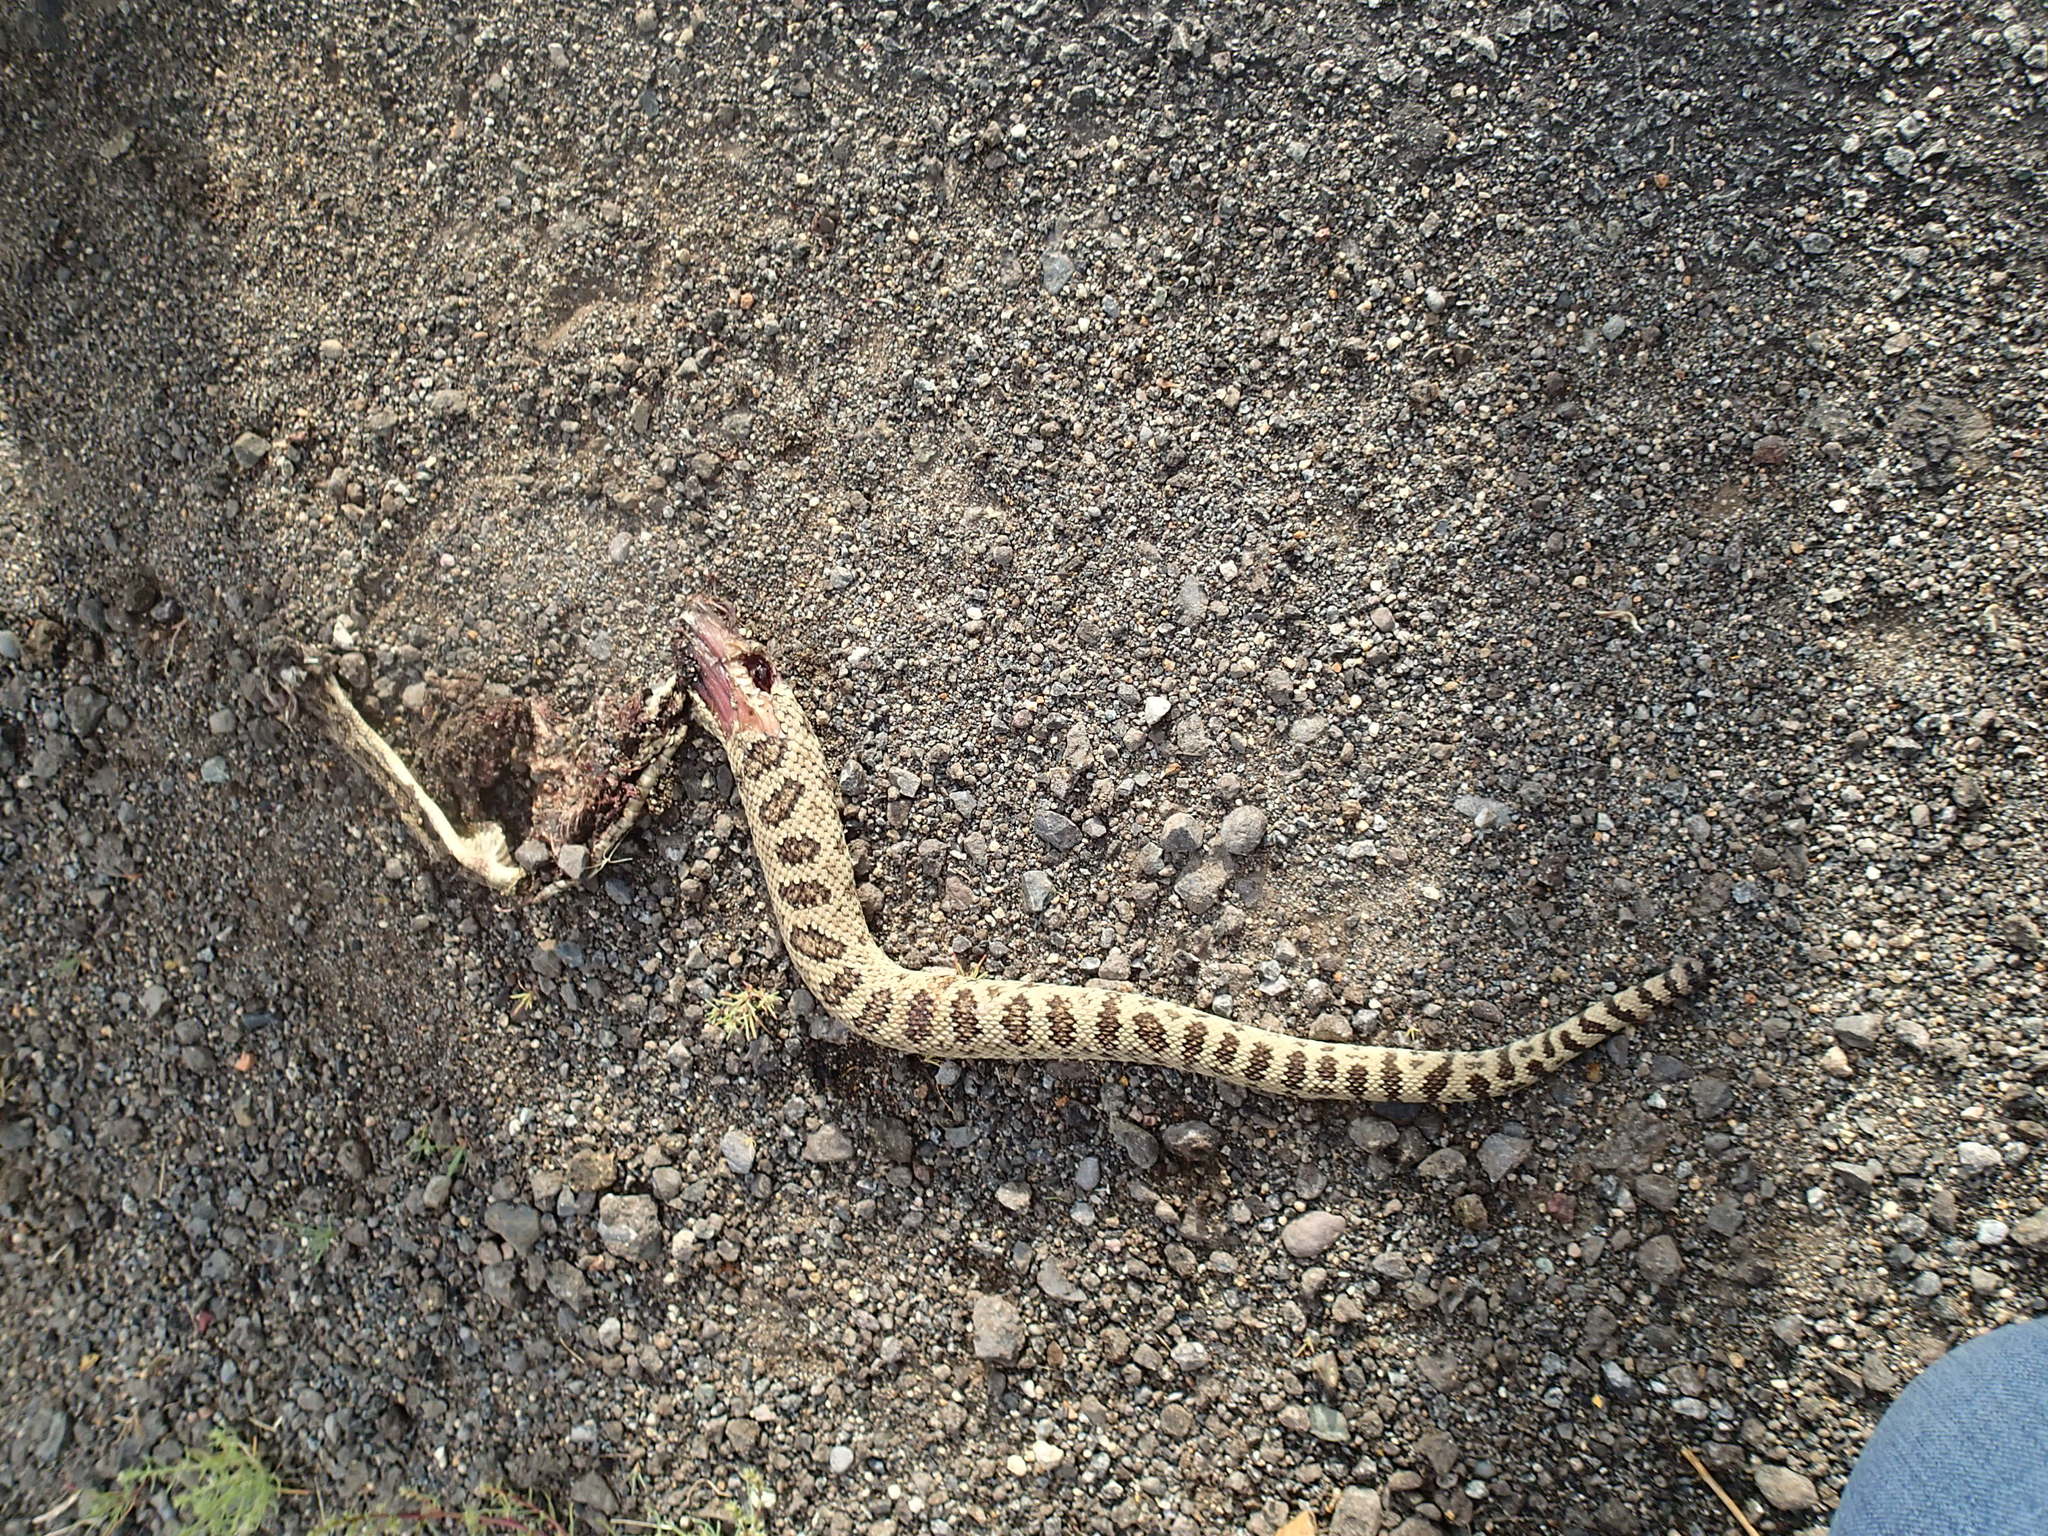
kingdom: Animalia
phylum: Chordata
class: Squamata
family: Viperidae
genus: Crotalus
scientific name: Crotalus oreganus
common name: Abyssus
